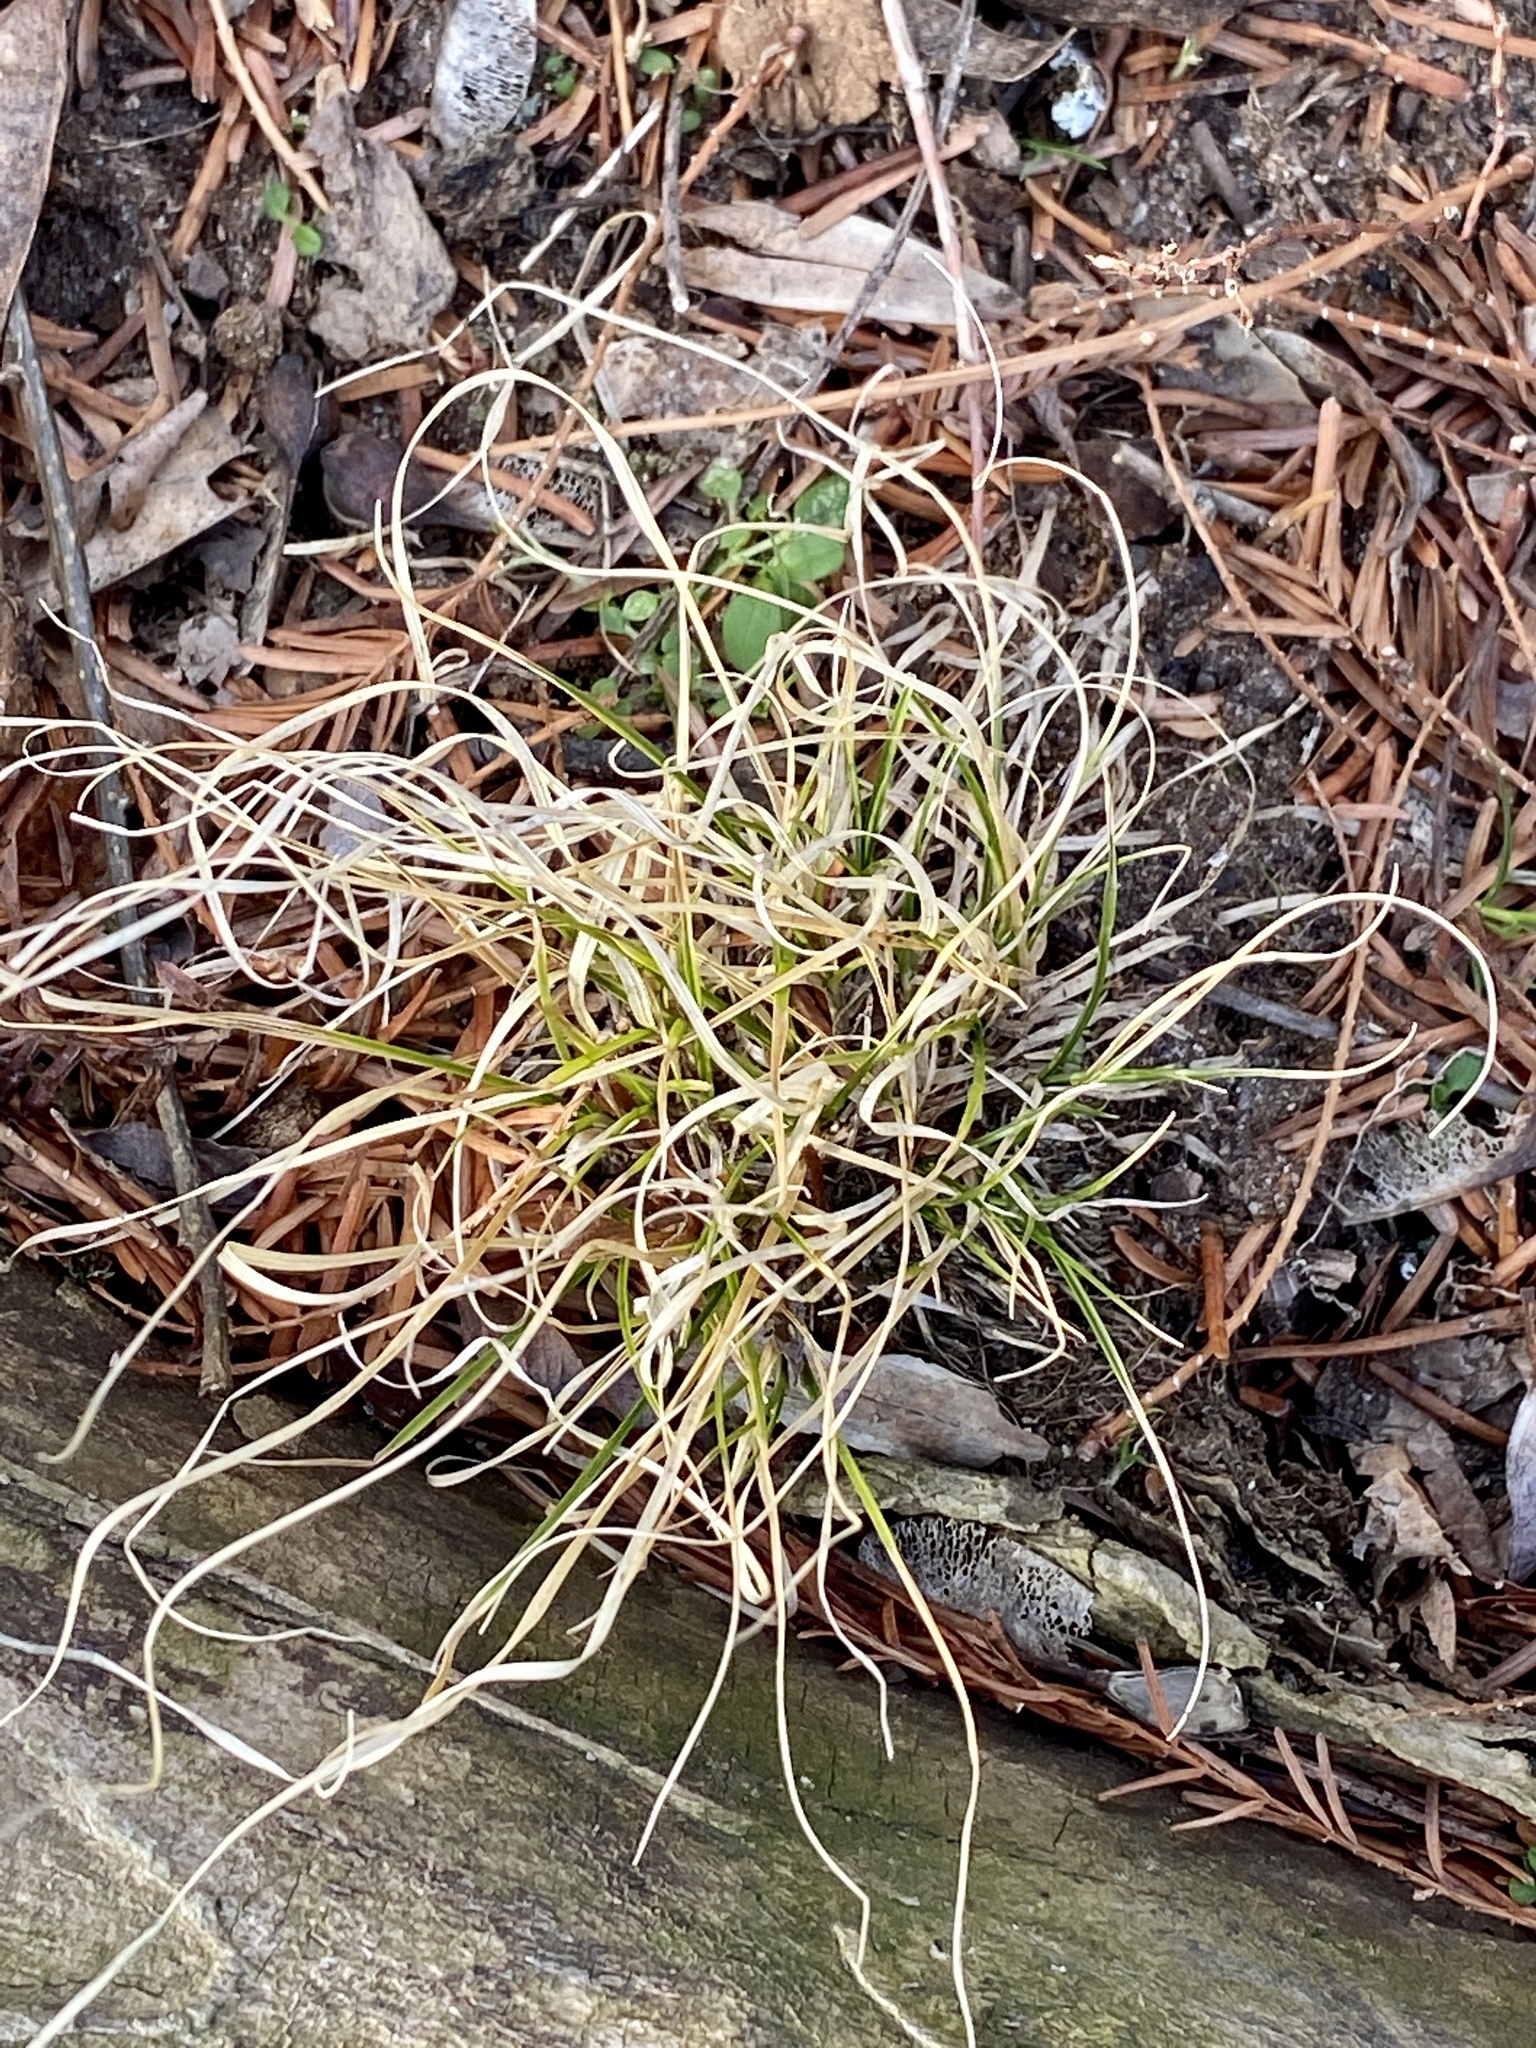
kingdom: Plantae
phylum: Tracheophyta
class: Liliopsida
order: Poales
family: Poaceae
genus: Danthonia
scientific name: Danthonia spicata
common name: Common wild oatgrass
